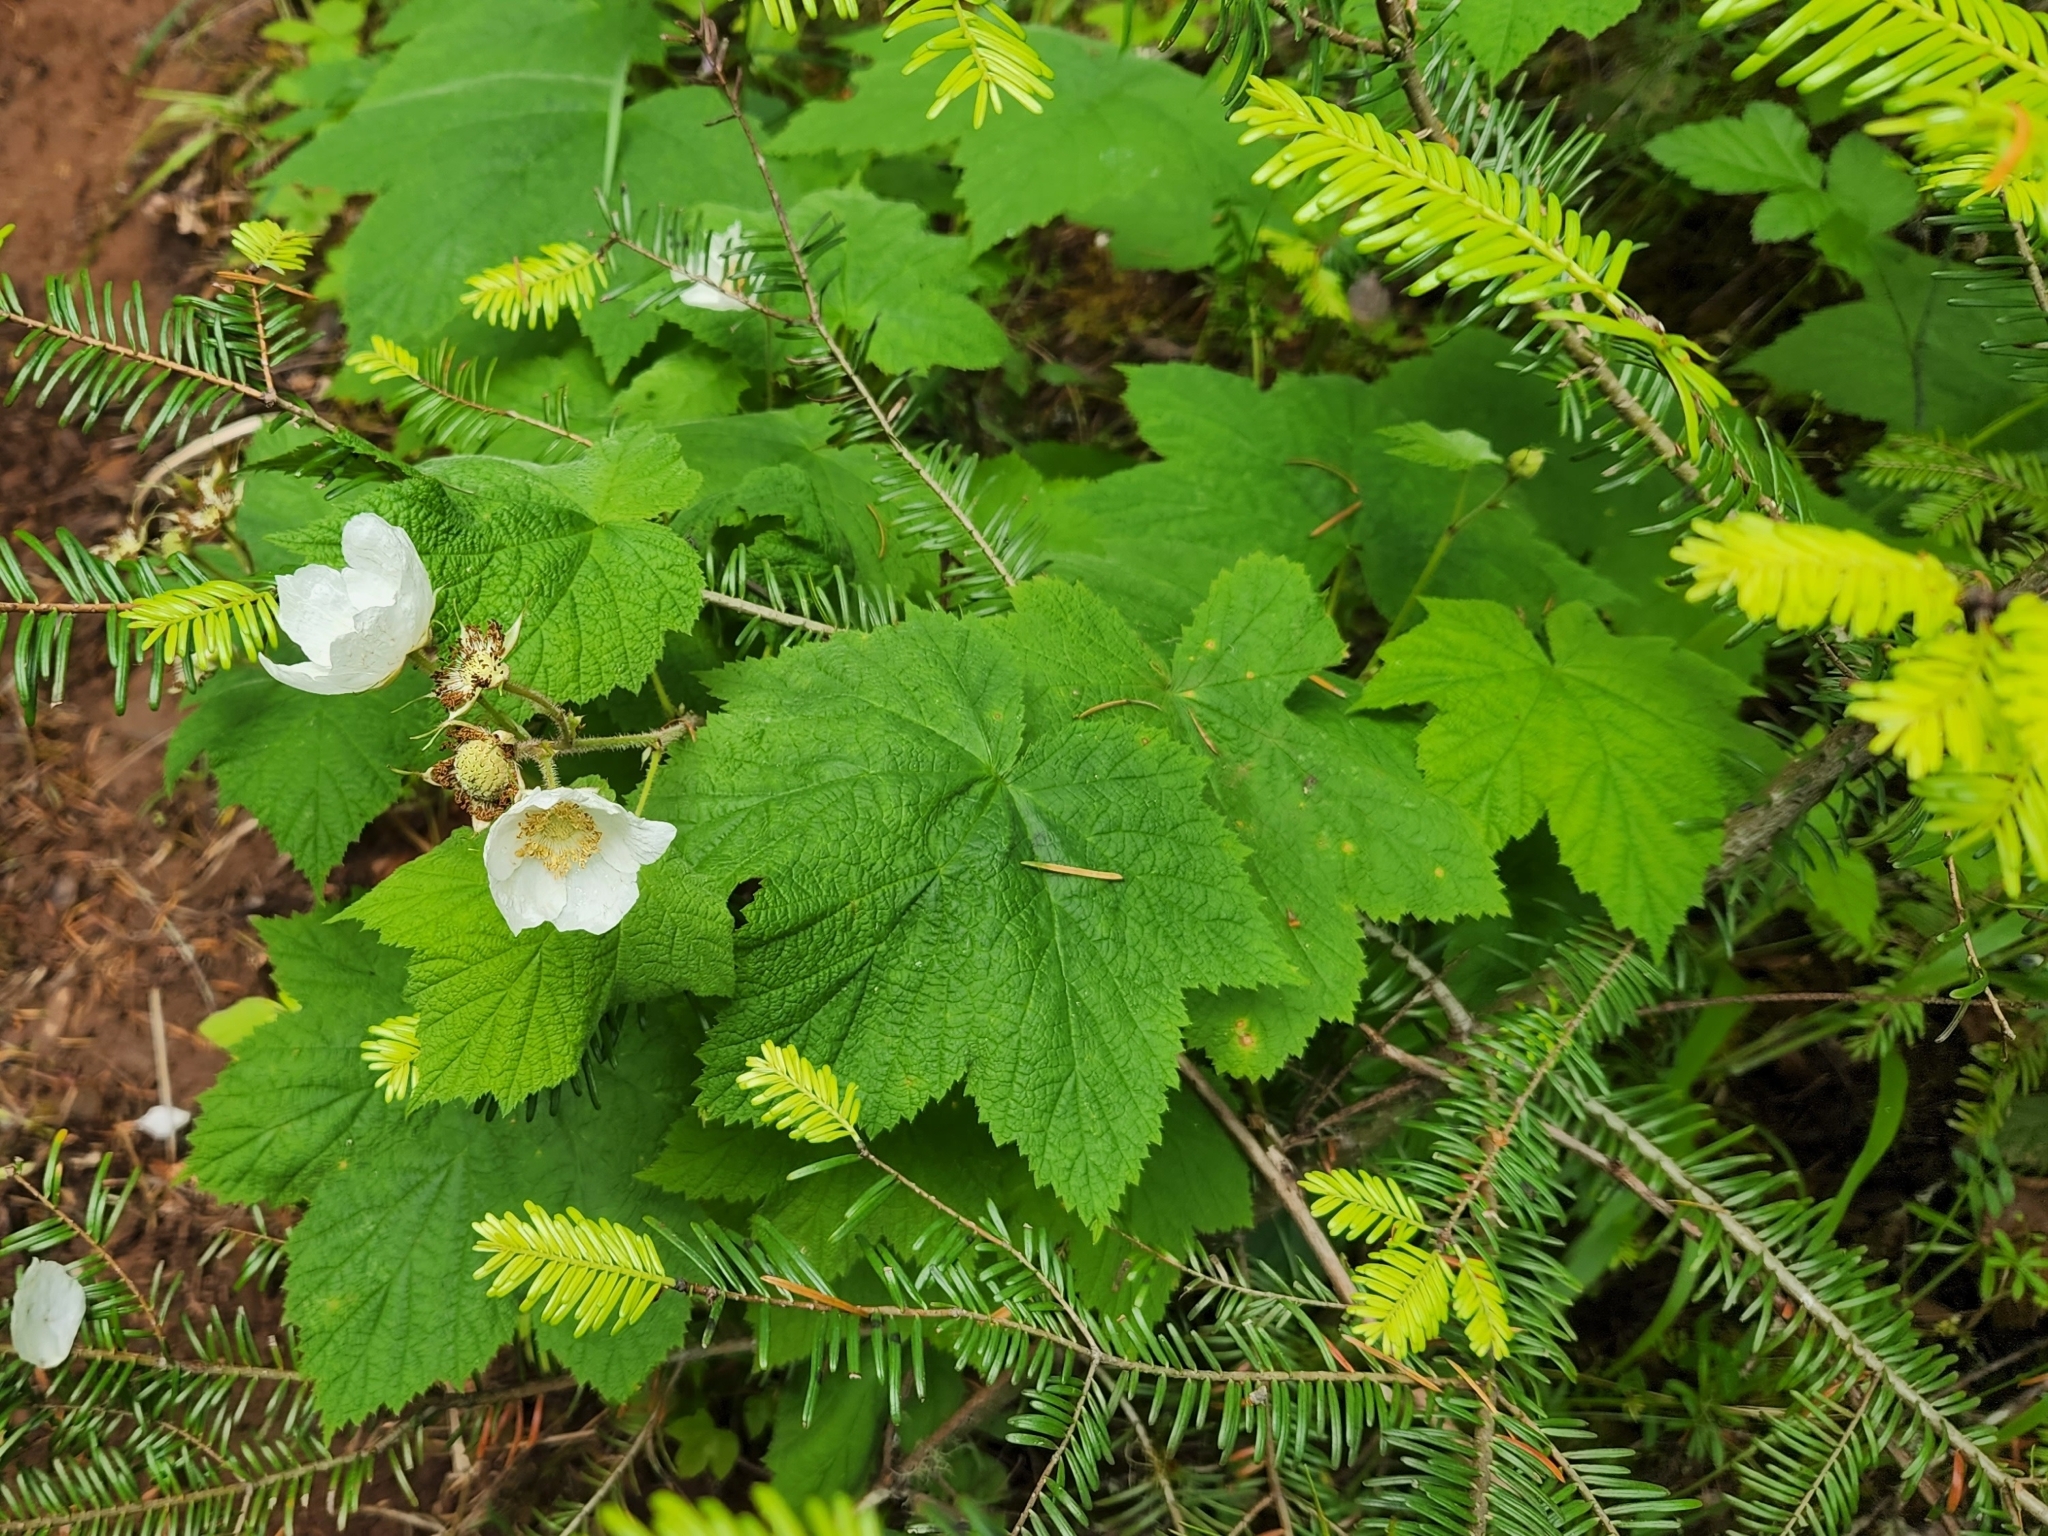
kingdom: Plantae
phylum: Tracheophyta
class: Magnoliopsida
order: Rosales
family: Rosaceae
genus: Rubus
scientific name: Rubus parviflorus
